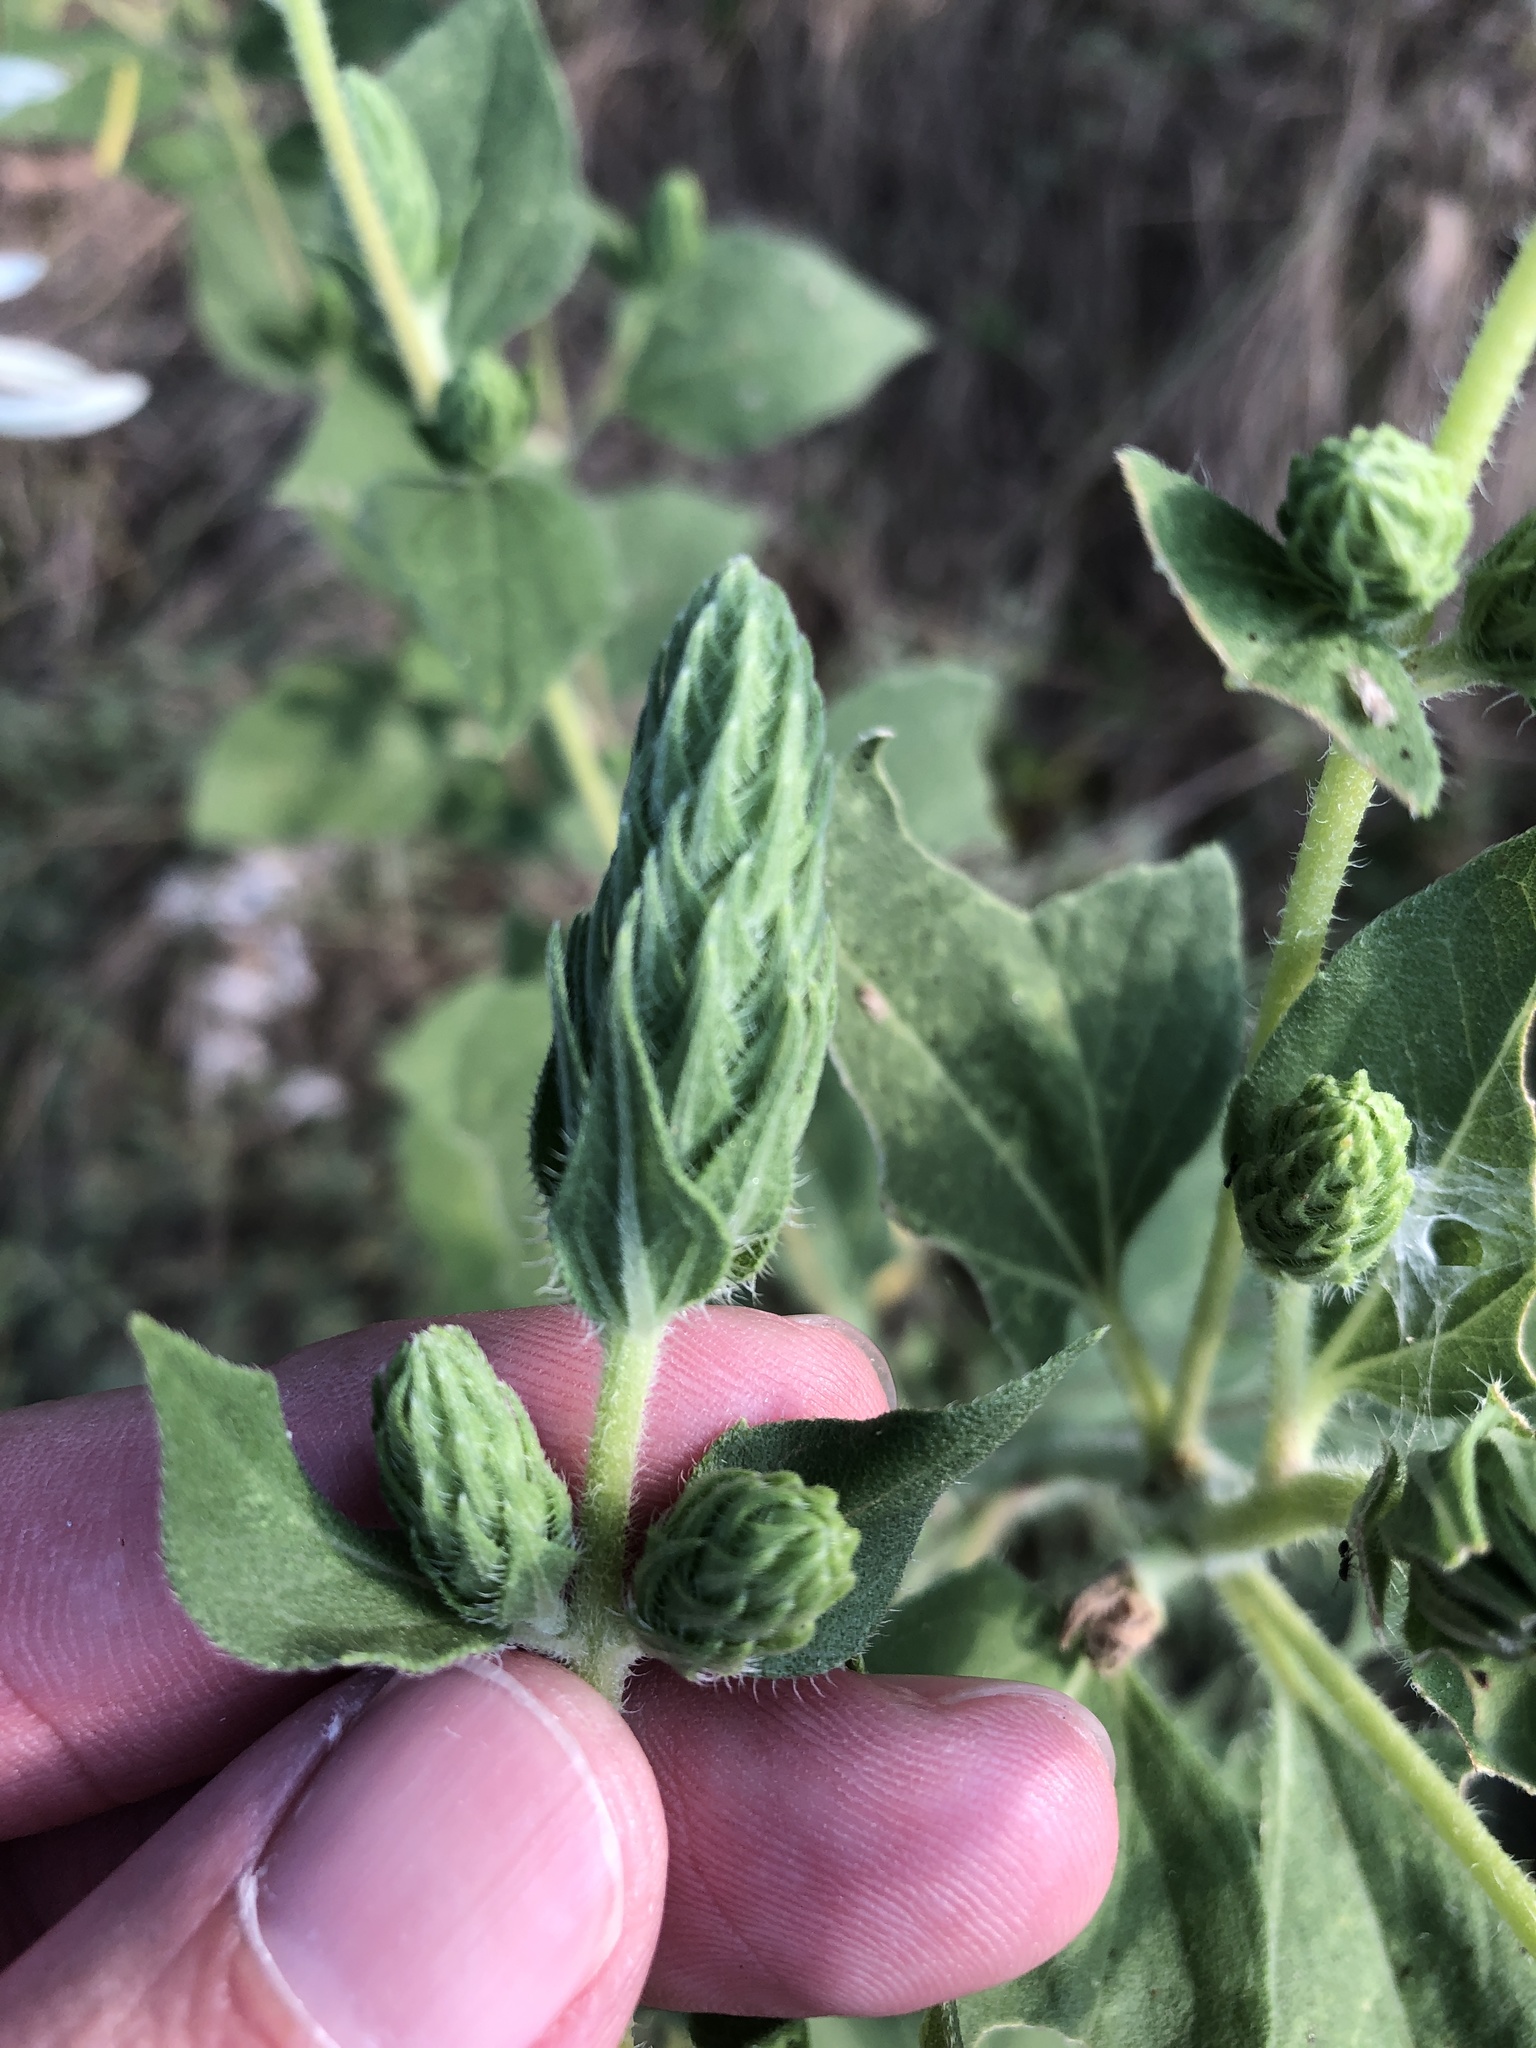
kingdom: Plantae
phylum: Tracheophyta
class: Magnoliopsida
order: Asterales
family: Asteraceae
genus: Iva
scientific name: Iva annua
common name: Marsh-elder
